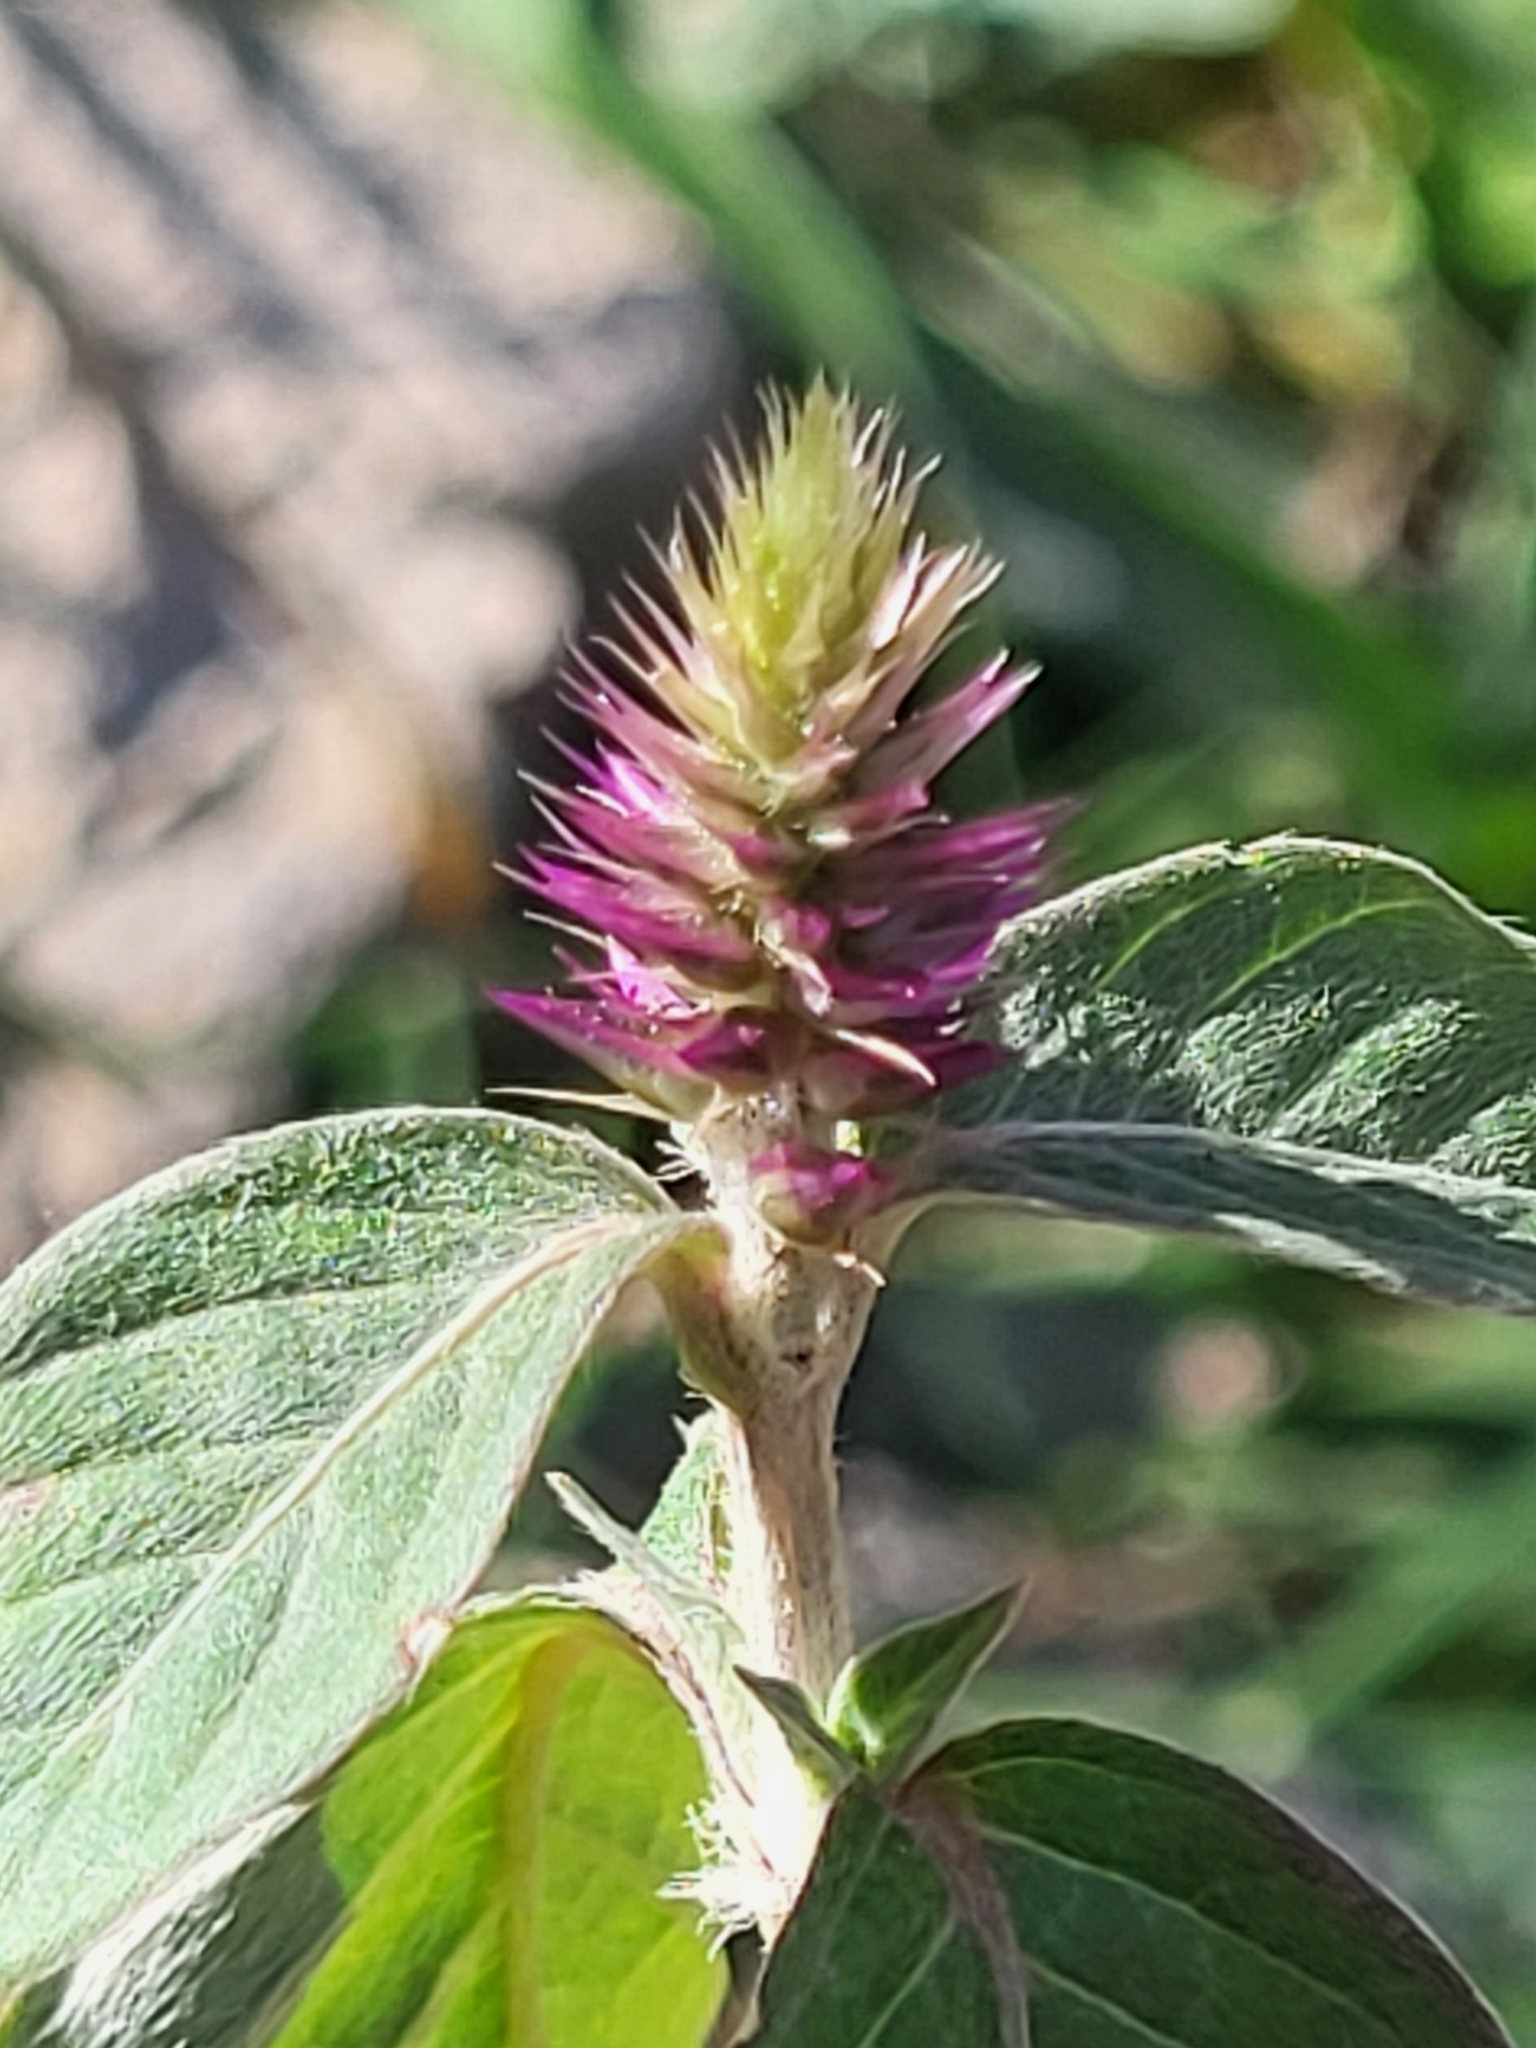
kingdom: Plantae
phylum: Tracheophyta
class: Magnoliopsida
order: Caryophyllales
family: Amaranthaceae
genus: Achyranthes
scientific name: Achyranthes aspera
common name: Devil's horsewhip
